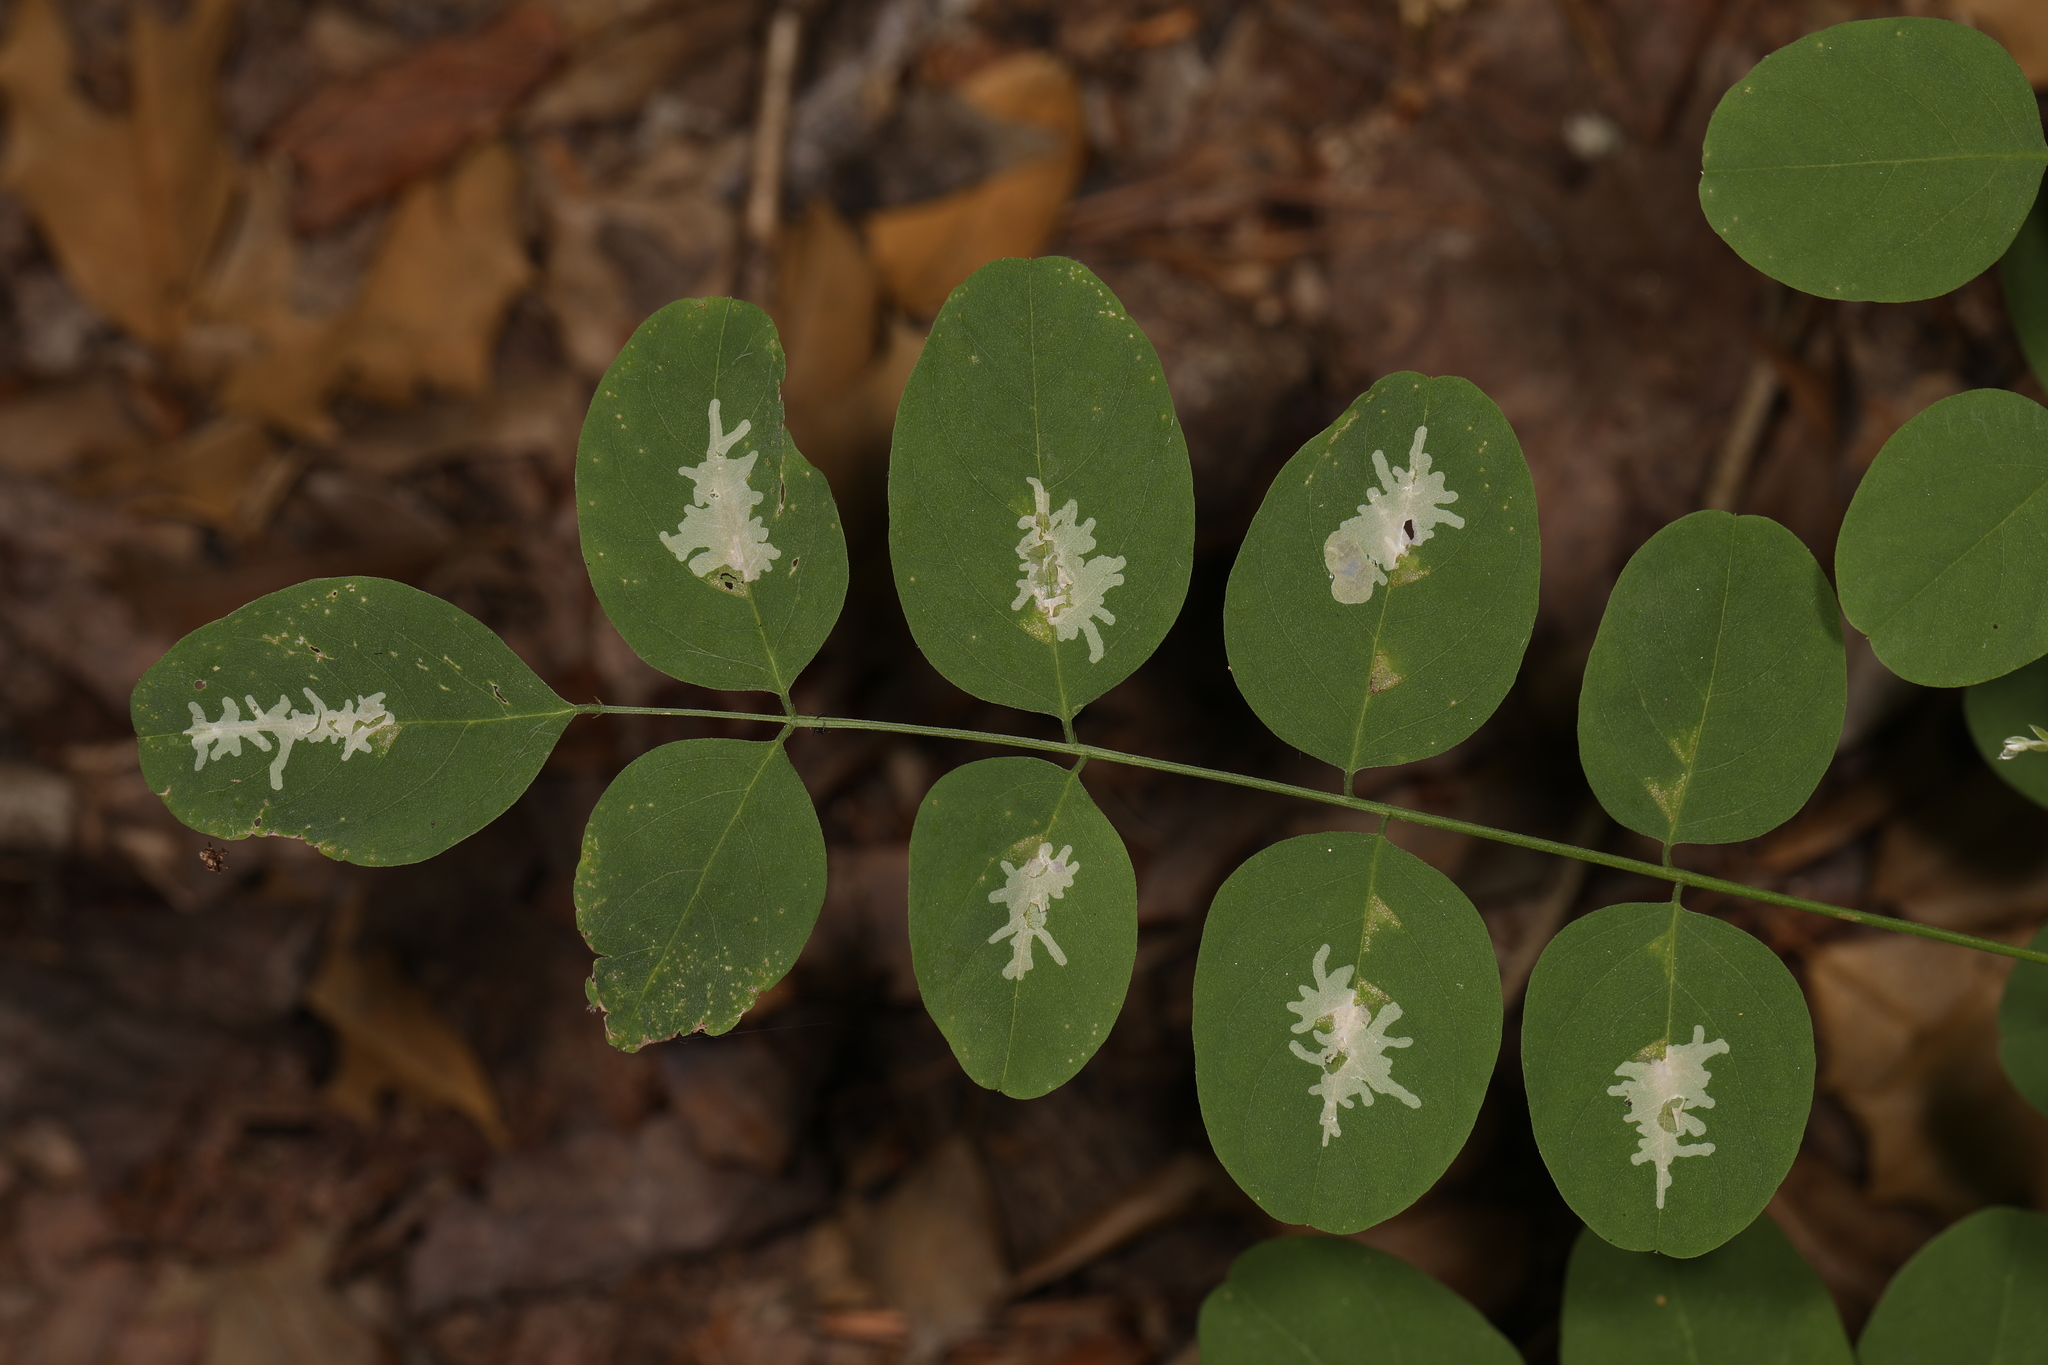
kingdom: Animalia
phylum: Arthropoda
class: Insecta
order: Lepidoptera
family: Gracillariidae
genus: Parectopa
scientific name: Parectopa robiniella
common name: Locust digitate leafminer
